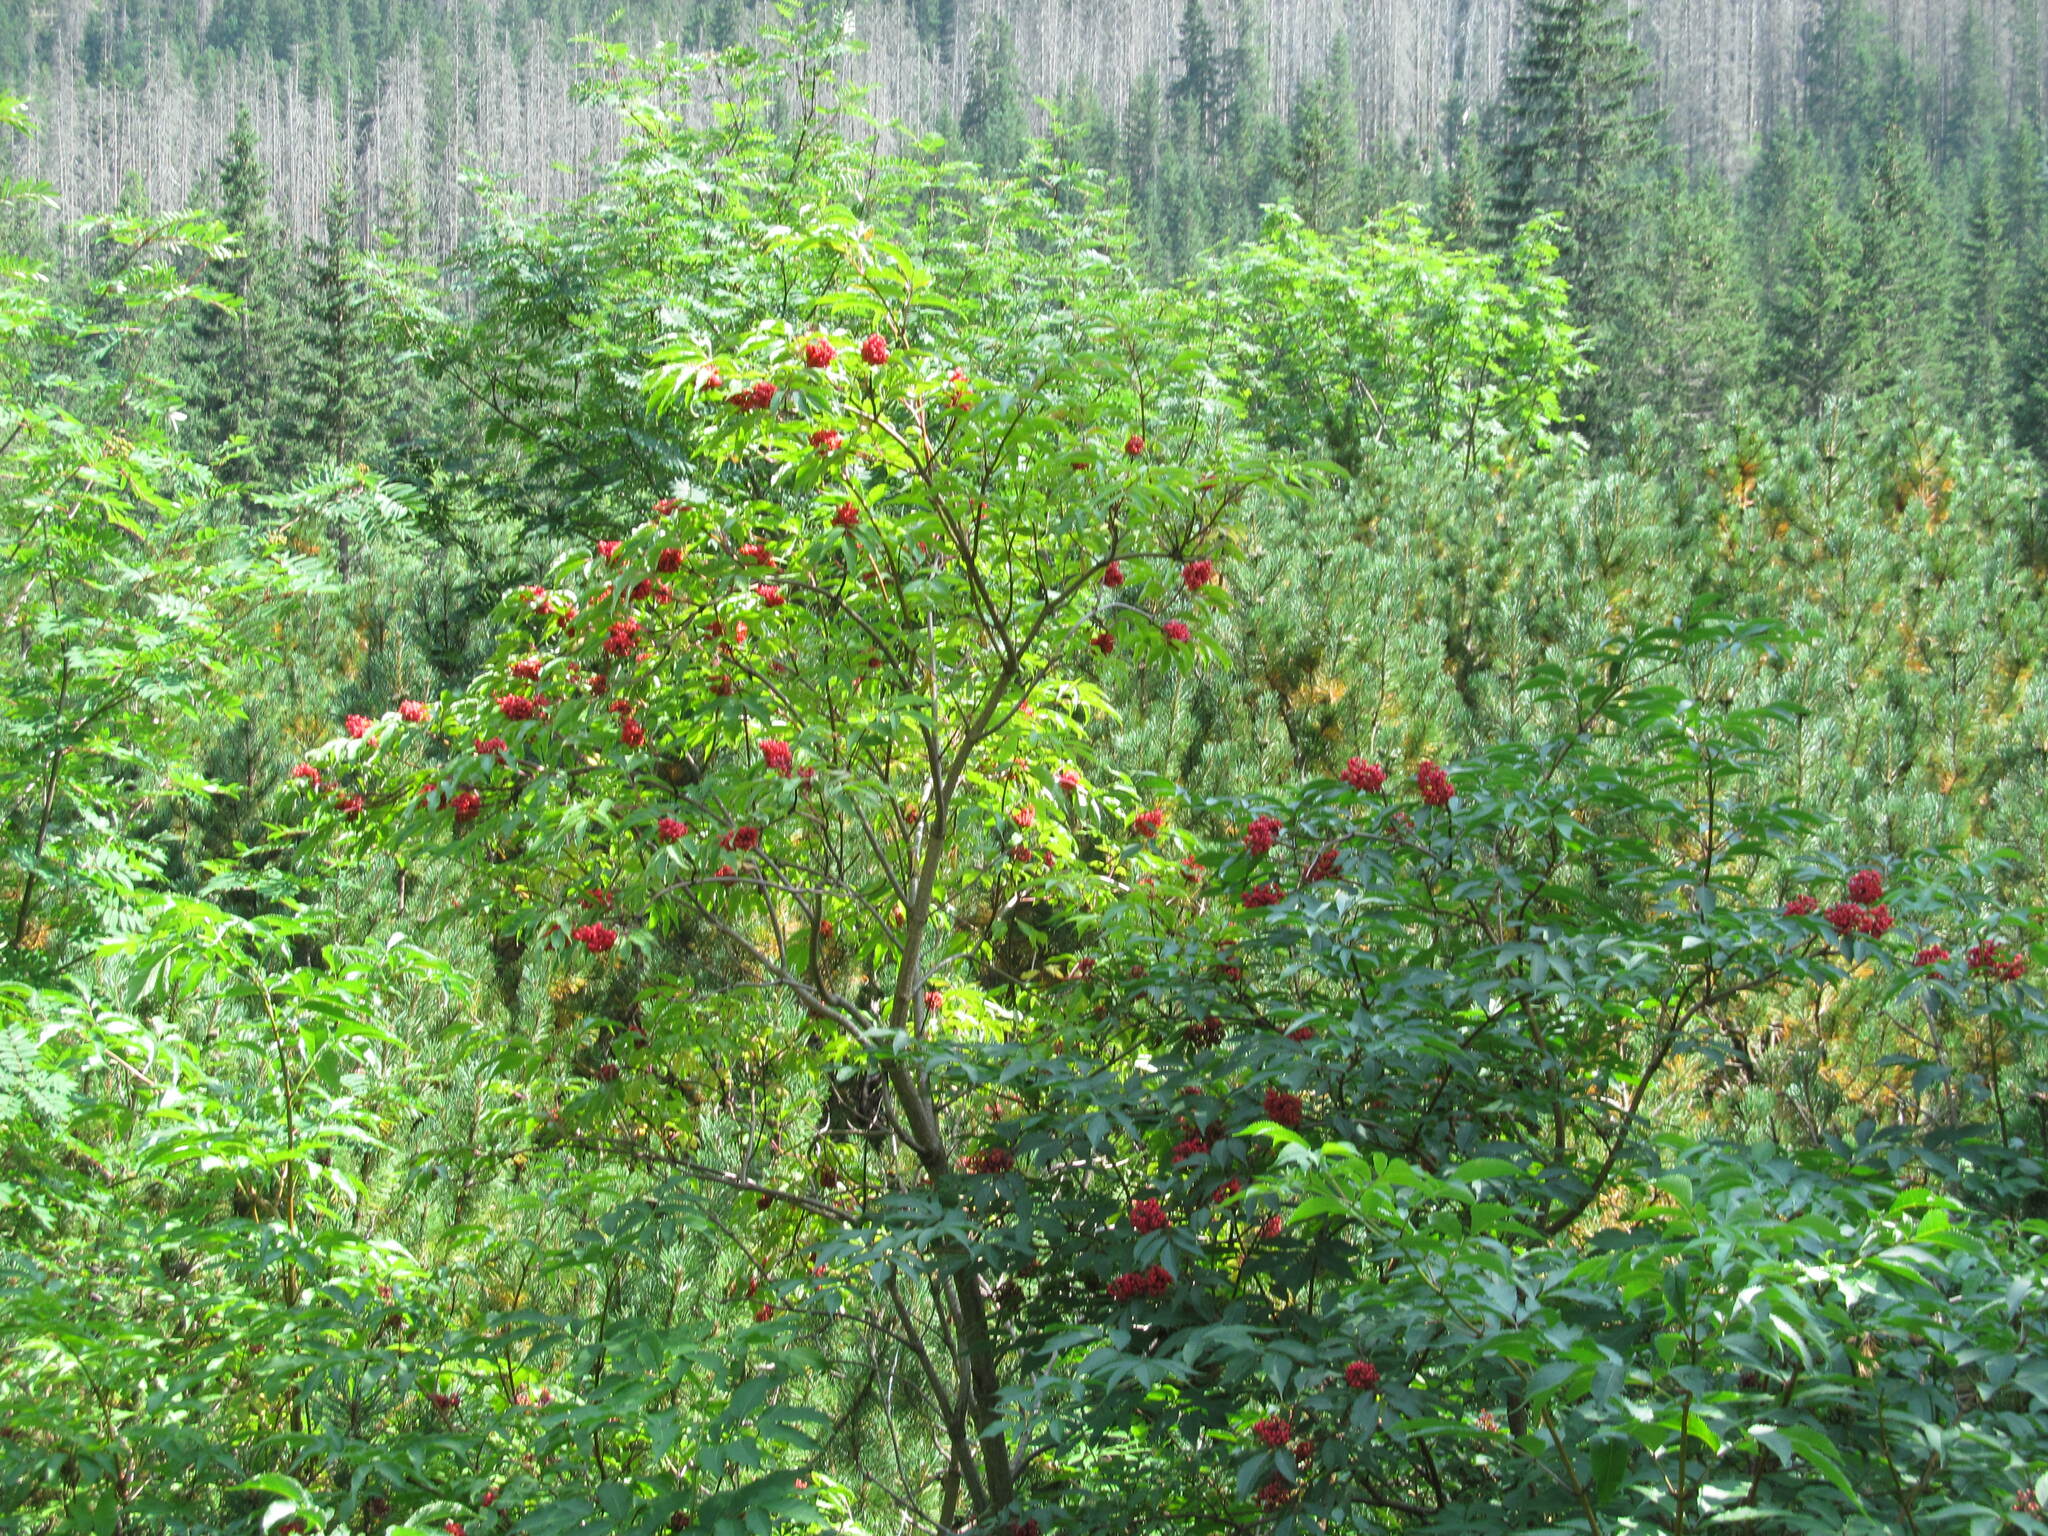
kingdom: Plantae
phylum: Tracheophyta
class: Magnoliopsida
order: Dipsacales
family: Viburnaceae
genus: Sambucus
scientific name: Sambucus racemosa
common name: Red-berried elder
